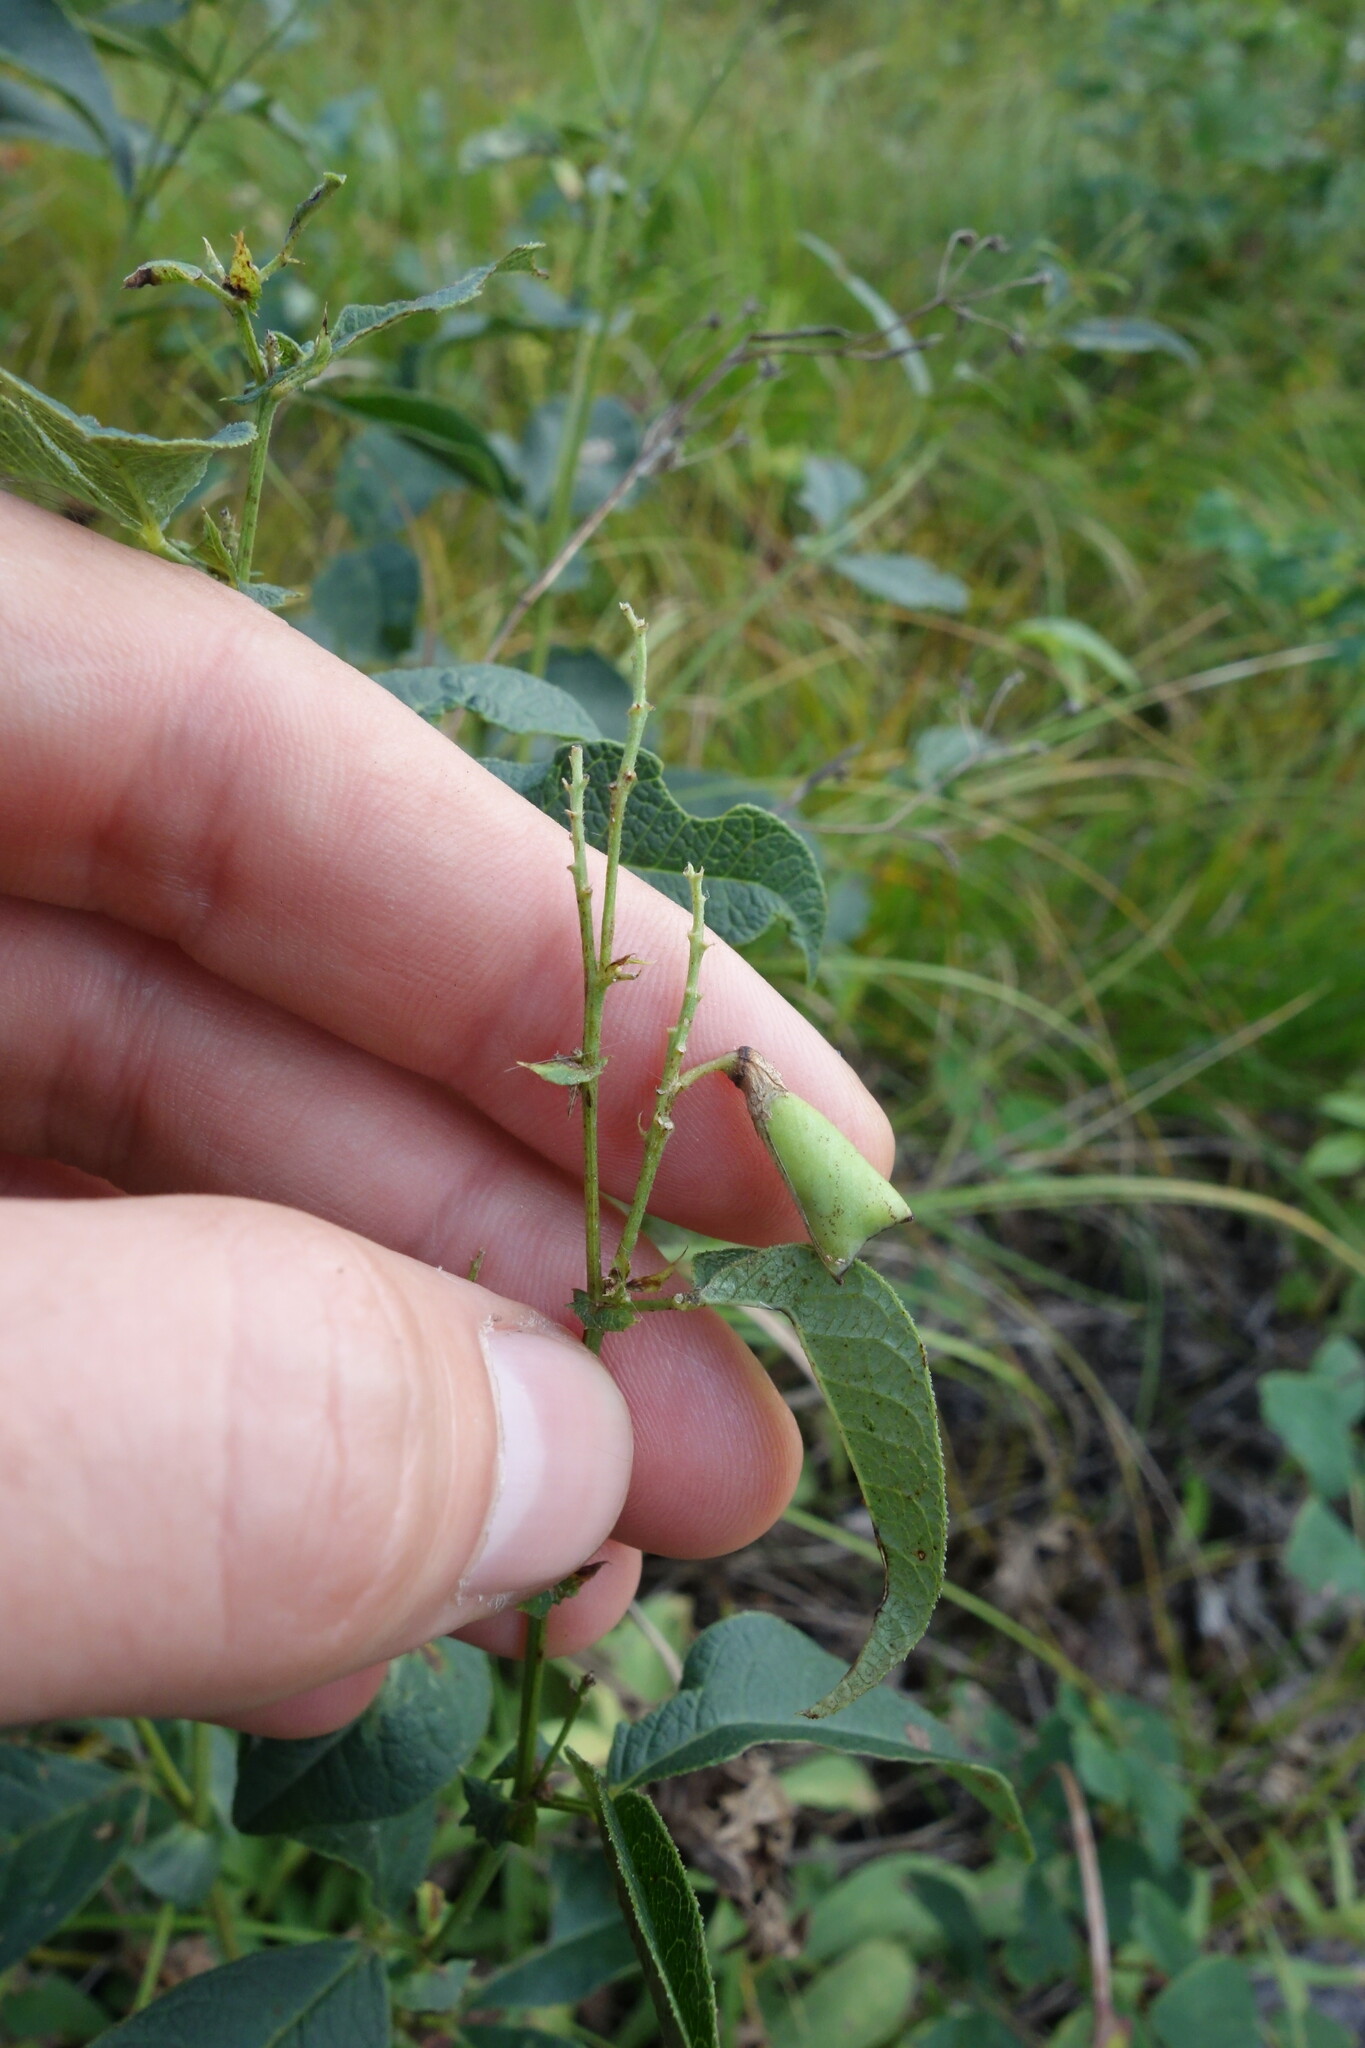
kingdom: Plantae
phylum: Tracheophyta
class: Magnoliopsida
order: Fabales
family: Fabaceae
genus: Vicia
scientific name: Vicia unijuga
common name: Two-leaf vetch
